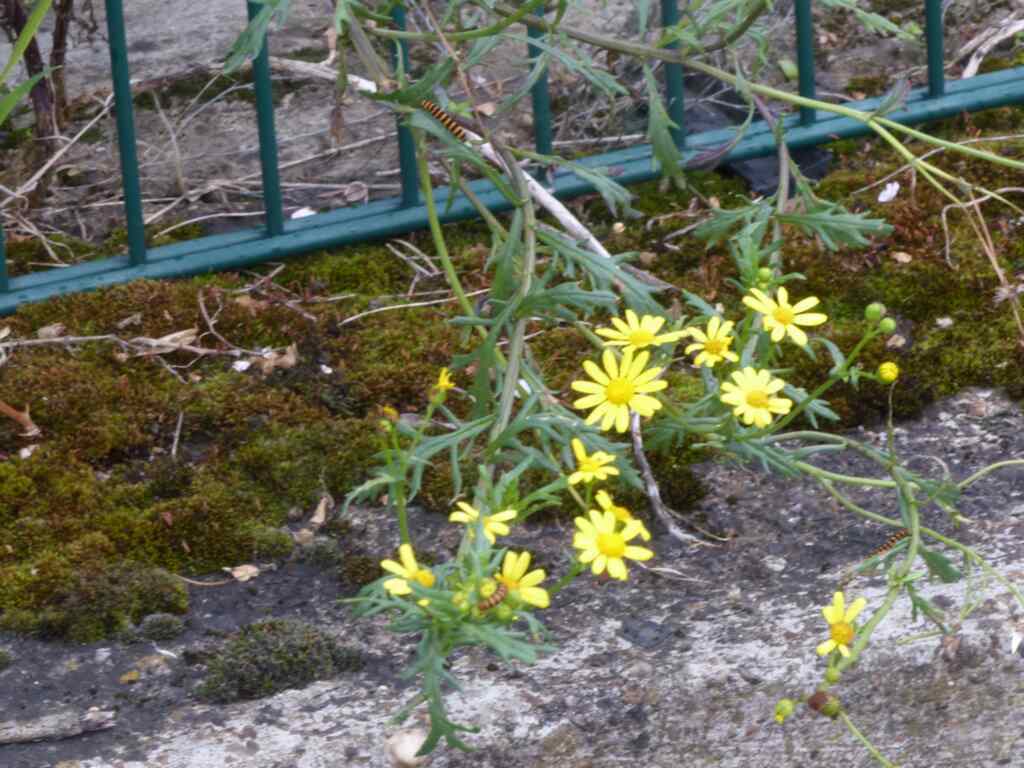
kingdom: Animalia
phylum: Arthropoda
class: Insecta
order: Lepidoptera
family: Erebidae
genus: Tyria
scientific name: Tyria jacobaeae
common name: Cinnabar
